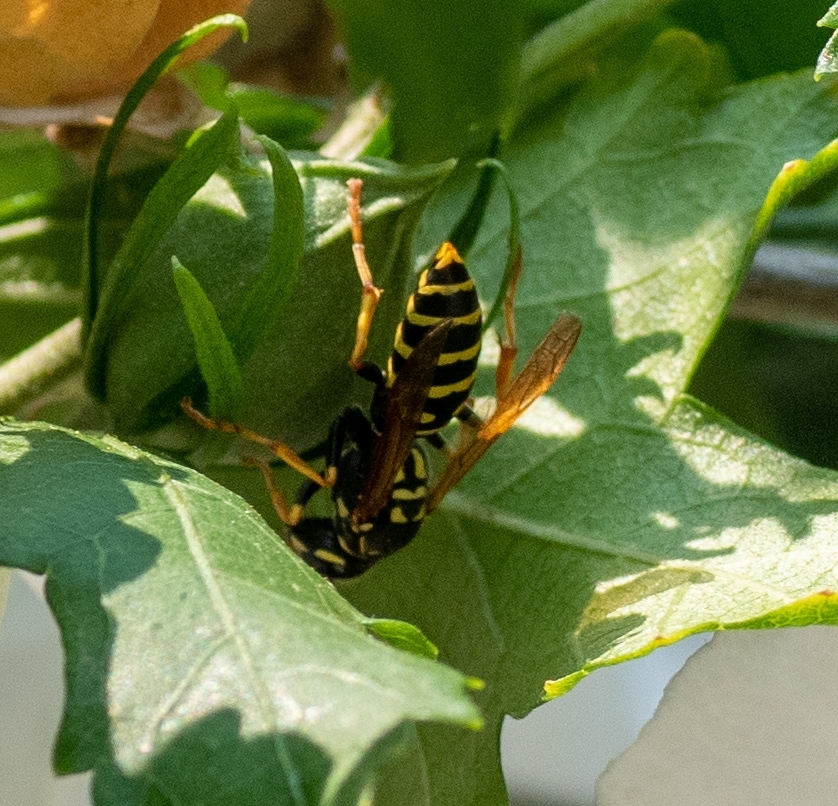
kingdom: Animalia
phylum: Arthropoda
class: Insecta
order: Hymenoptera
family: Eumenidae
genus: Polistes
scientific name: Polistes dominula
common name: Paper wasp
